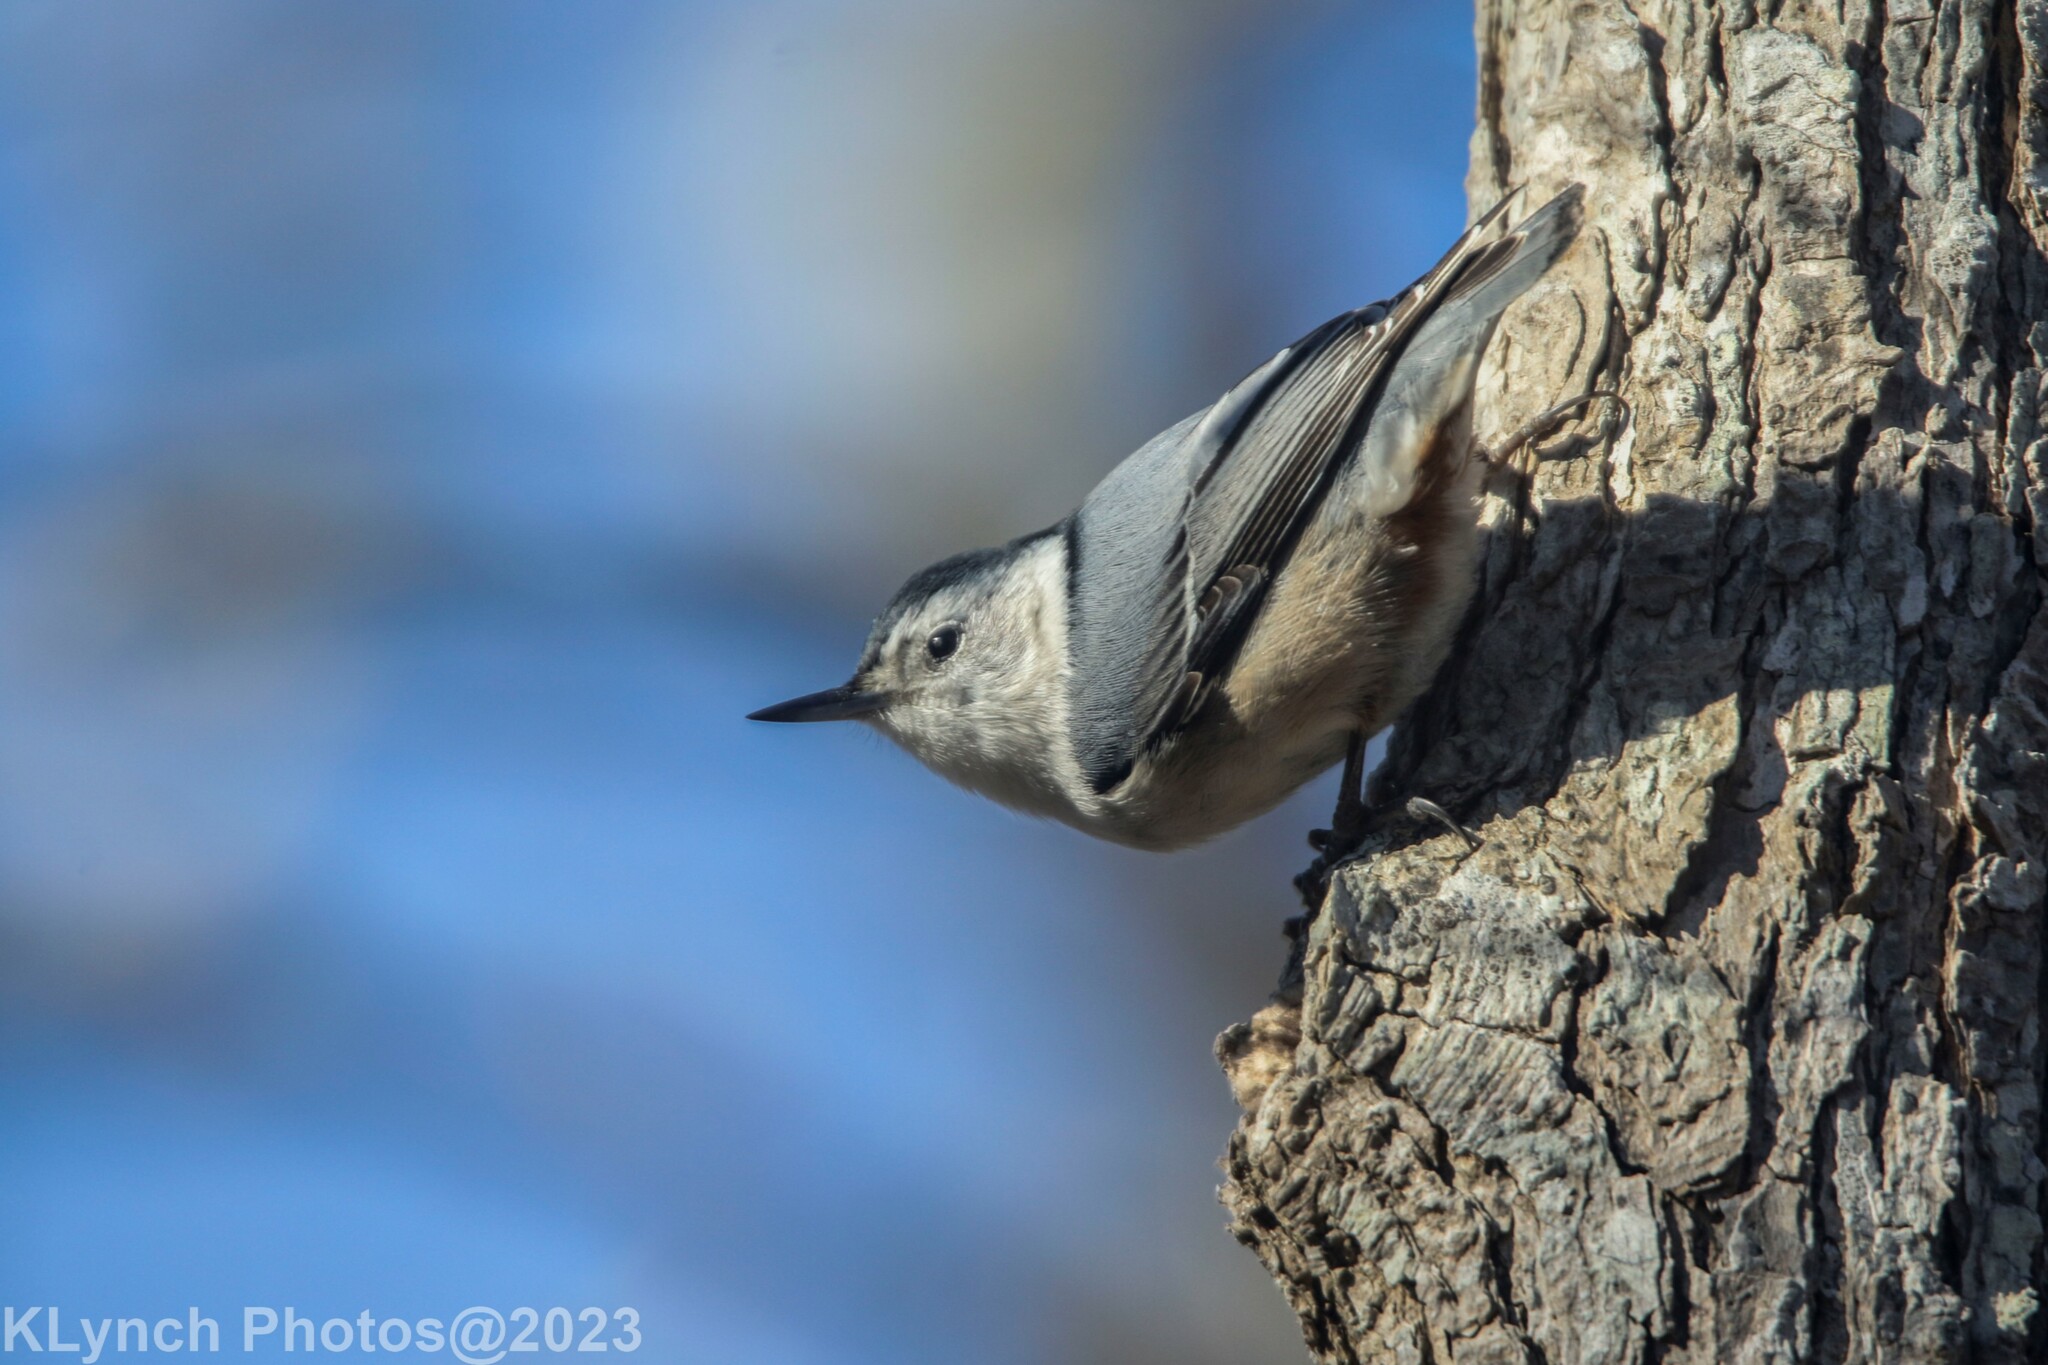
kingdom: Animalia
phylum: Chordata
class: Aves
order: Passeriformes
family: Sittidae
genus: Sitta
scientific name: Sitta carolinensis
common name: White-breasted nuthatch
